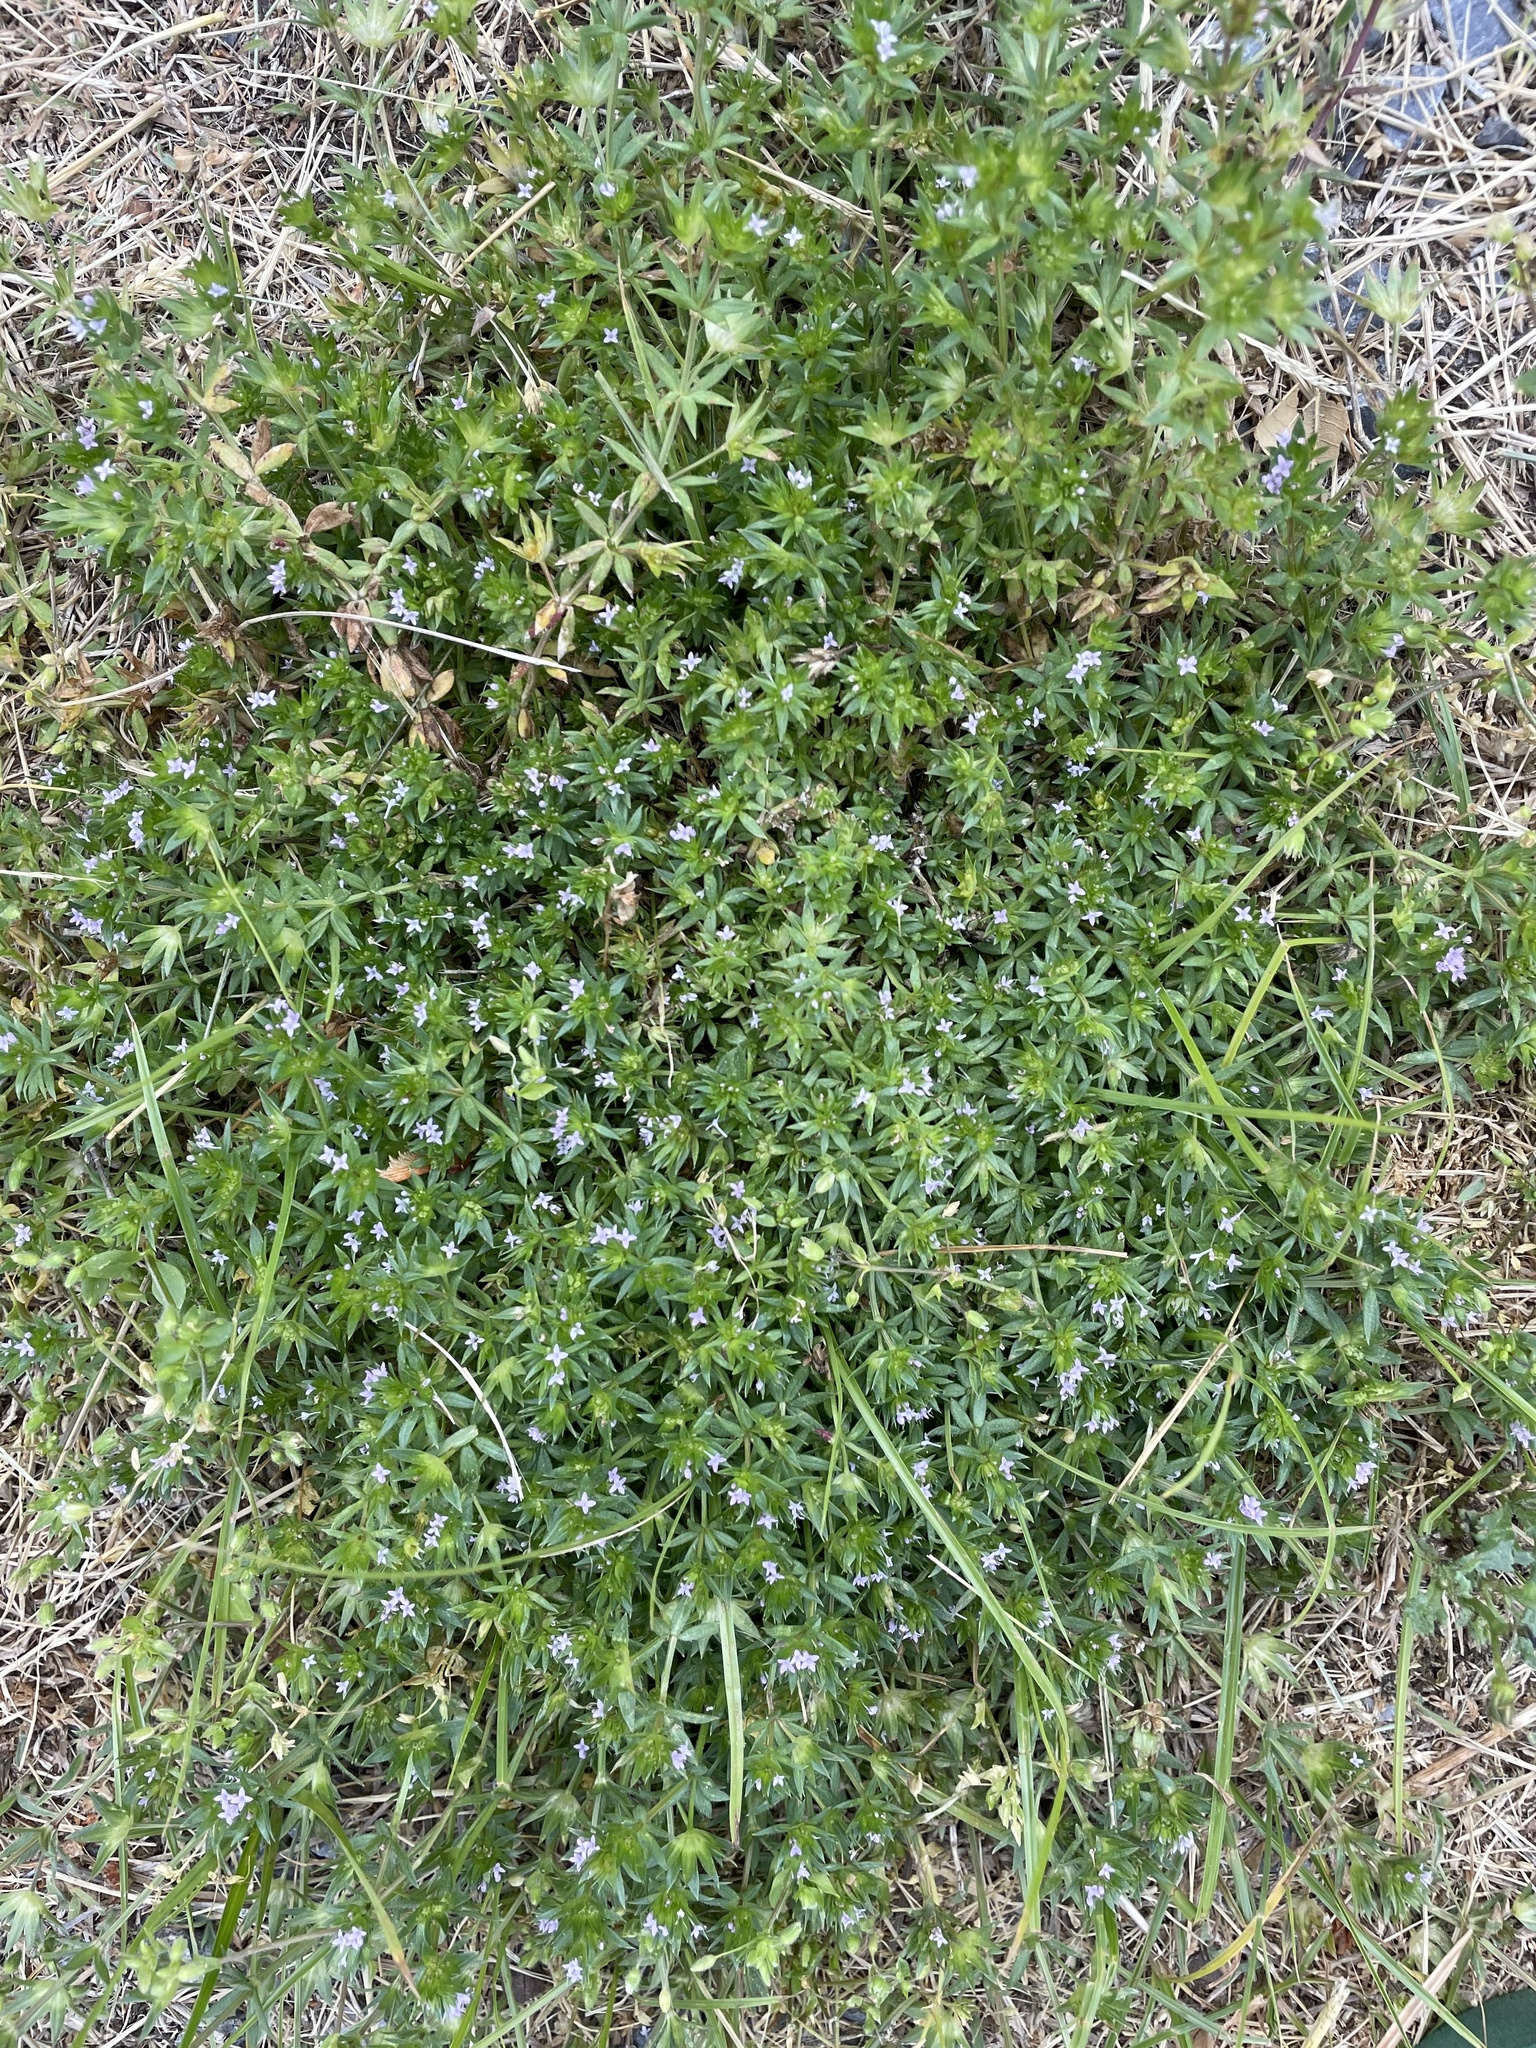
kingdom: Plantae
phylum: Tracheophyta
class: Magnoliopsida
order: Gentianales
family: Rubiaceae
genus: Sherardia
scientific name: Sherardia arvensis
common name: Field madder
